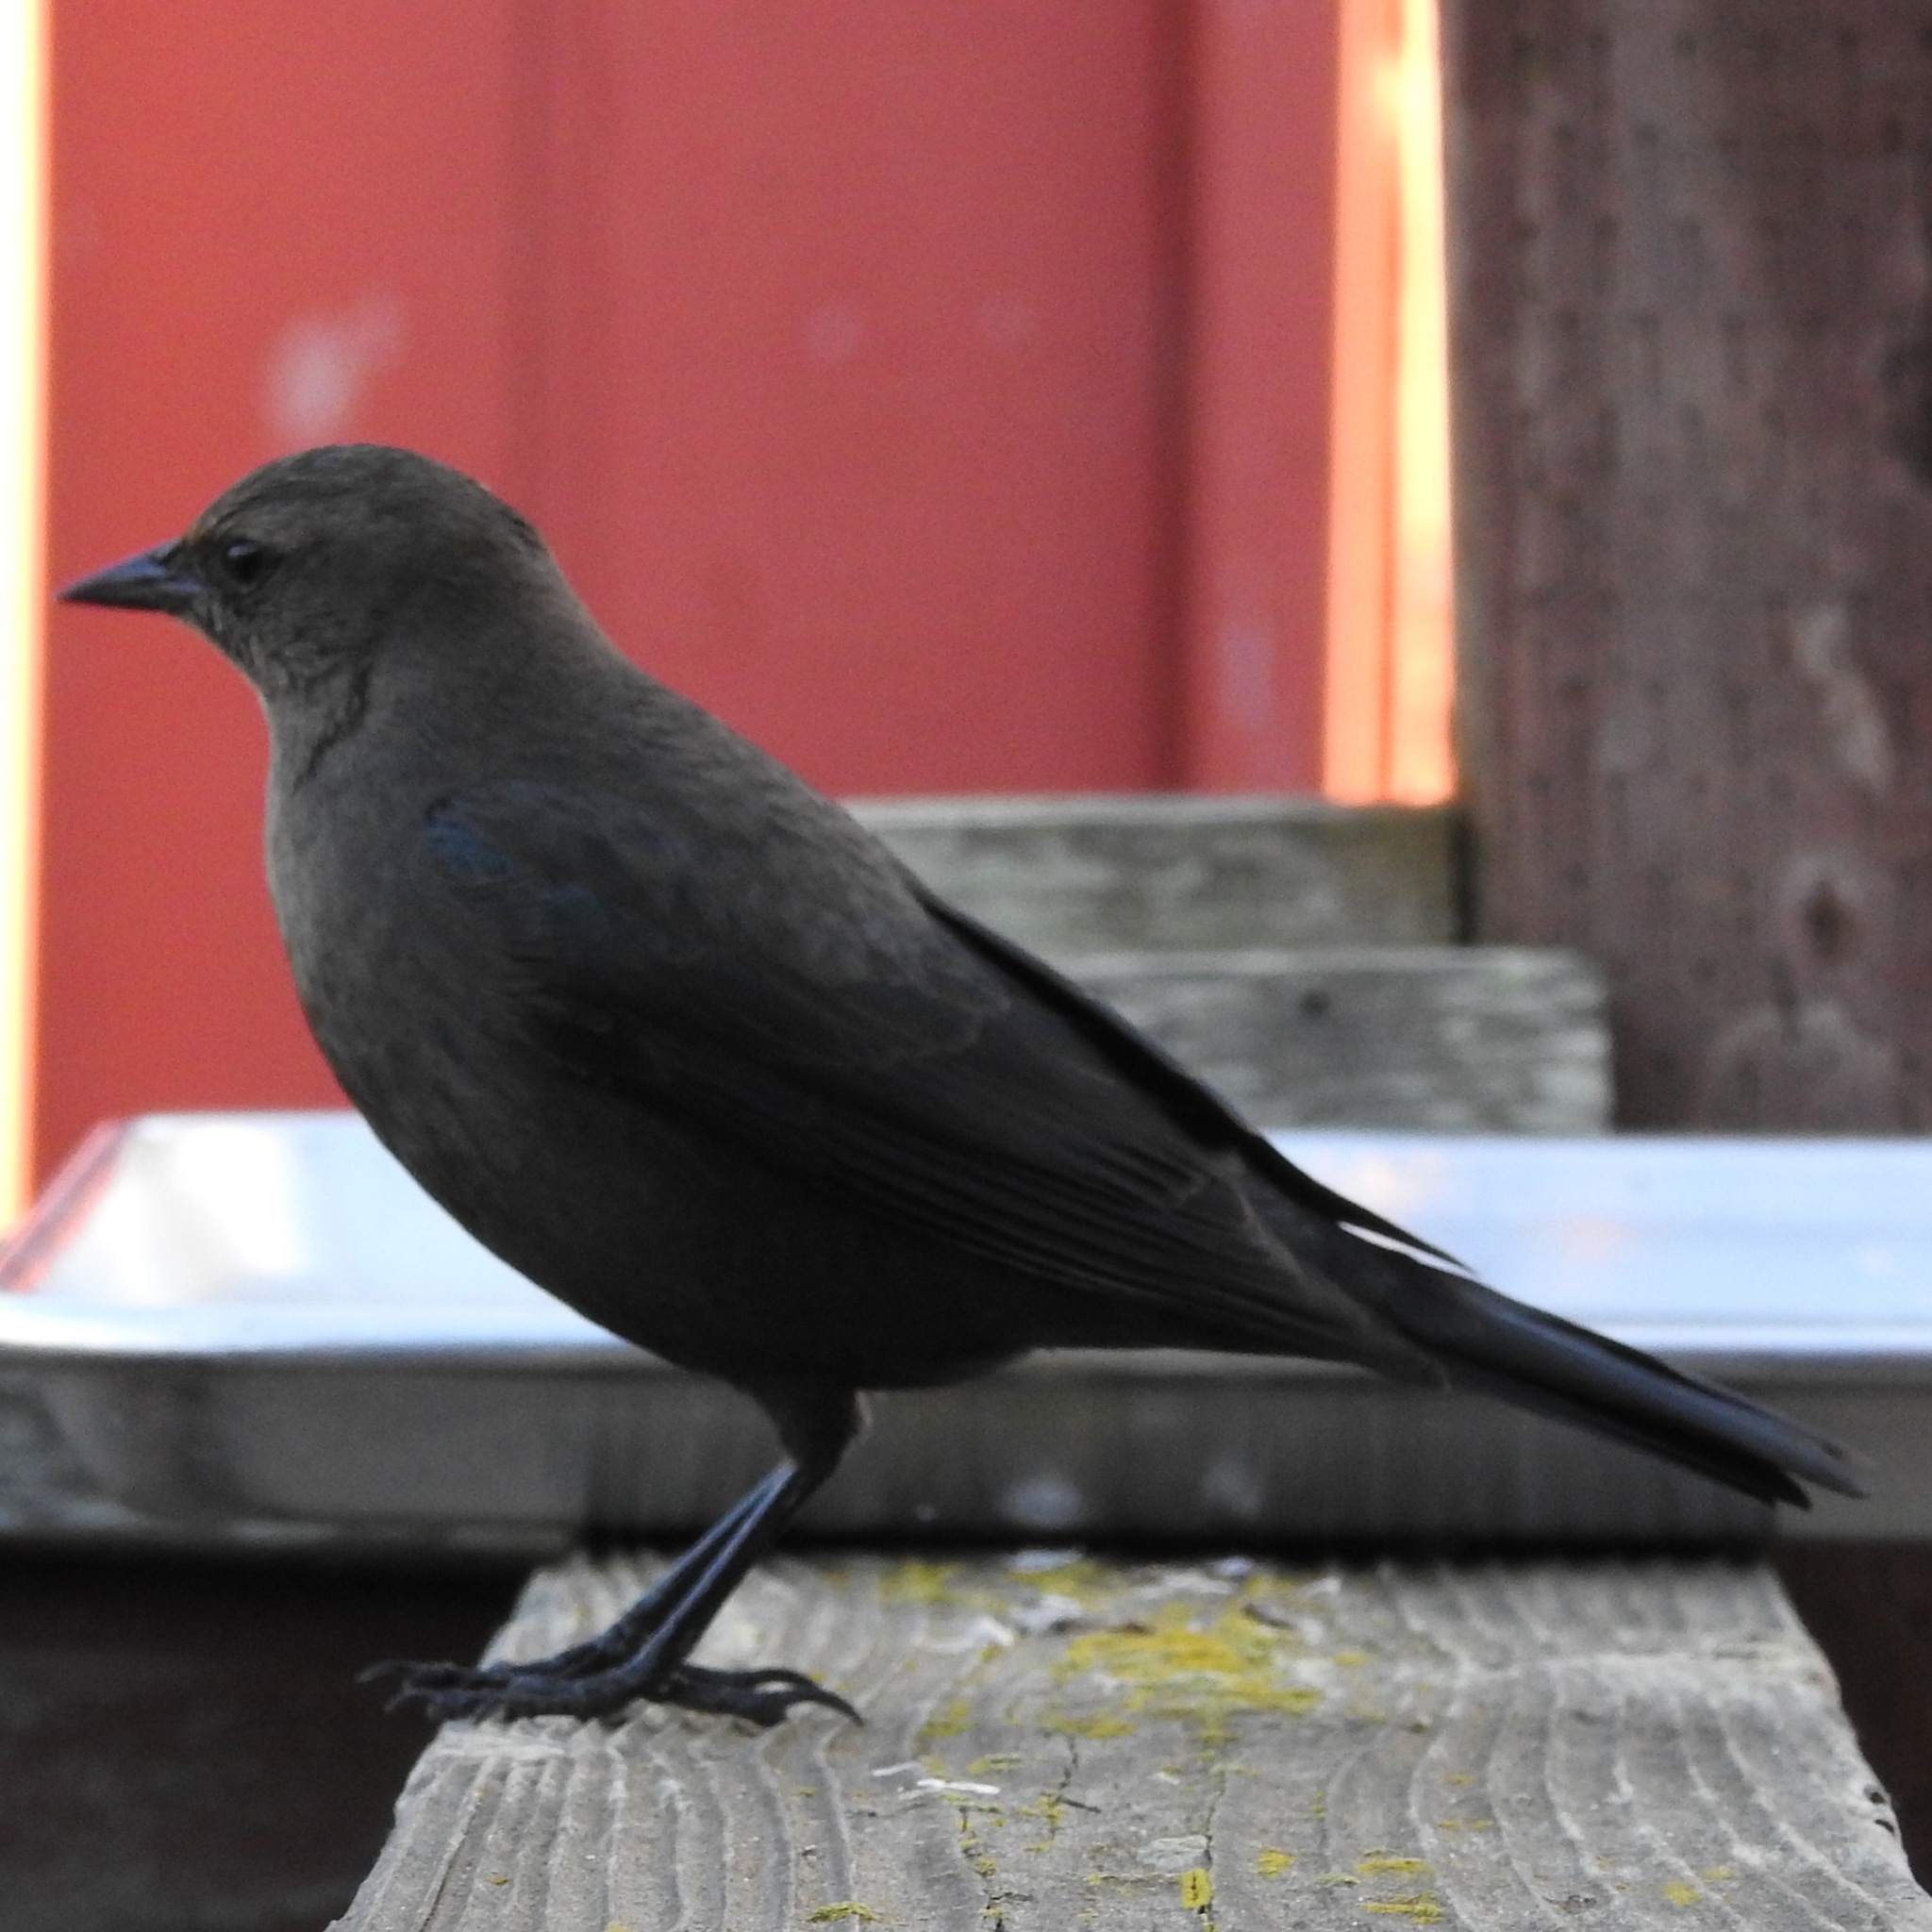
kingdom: Animalia
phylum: Chordata
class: Aves
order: Passeriformes
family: Icteridae
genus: Euphagus
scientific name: Euphagus cyanocephalus
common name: Brewer's blackbird
